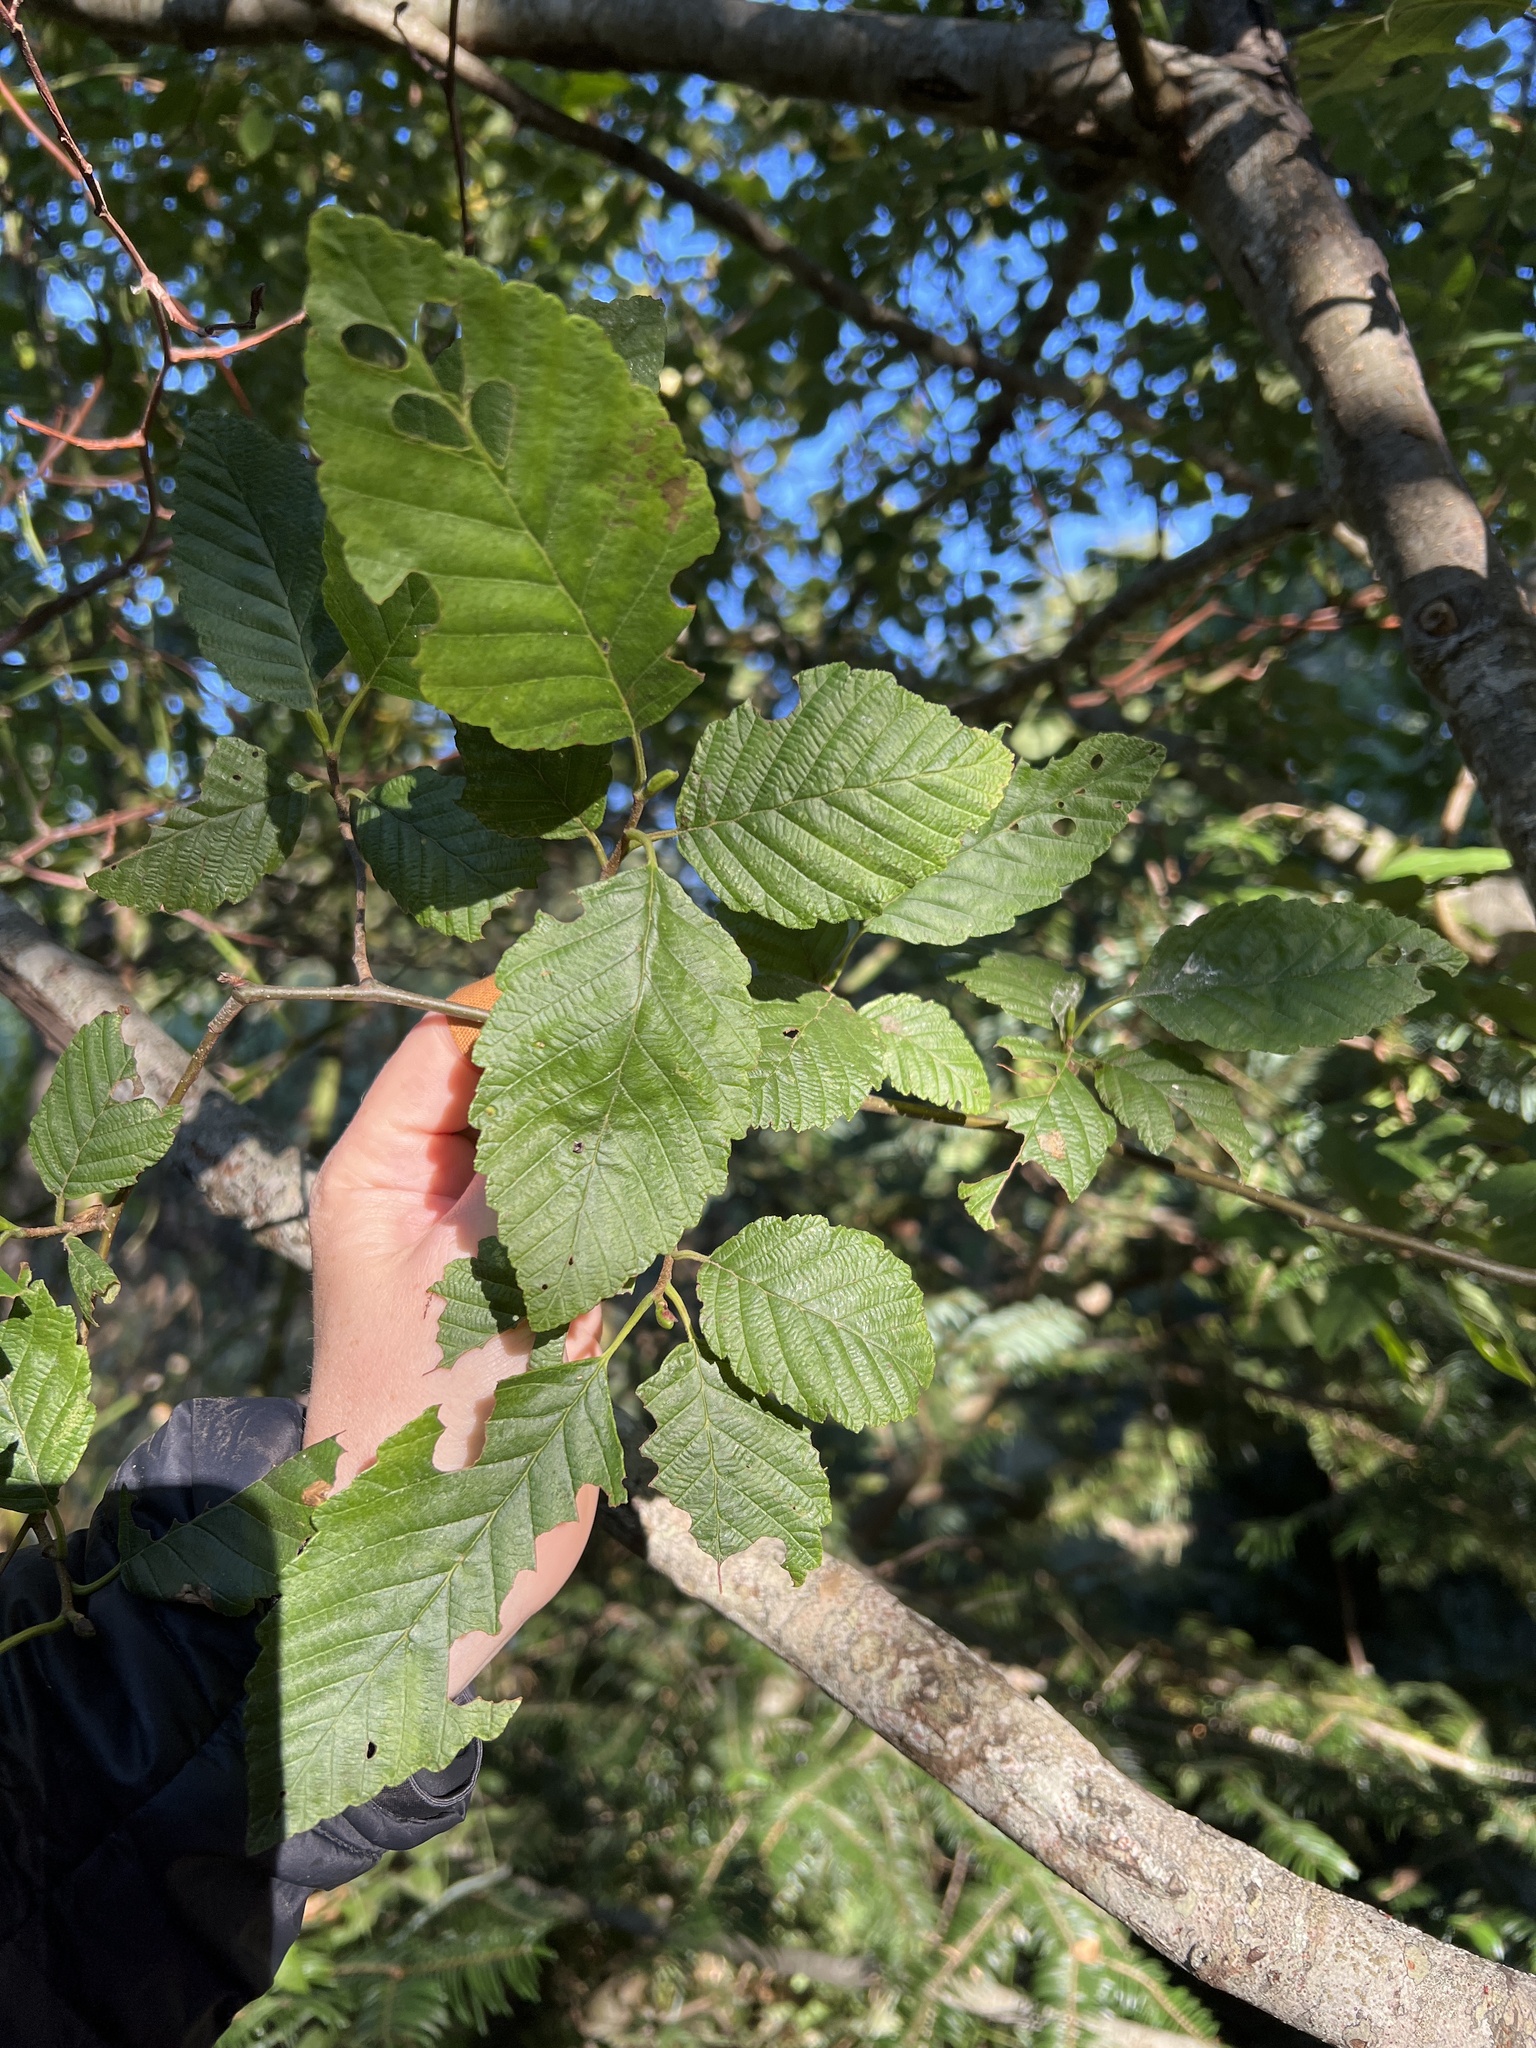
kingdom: Plantae
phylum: Tracheophyta
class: Magnoliopsida
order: Fagales
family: Betulaceae
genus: Alnus
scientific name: Alnus rubra
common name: Red alder
